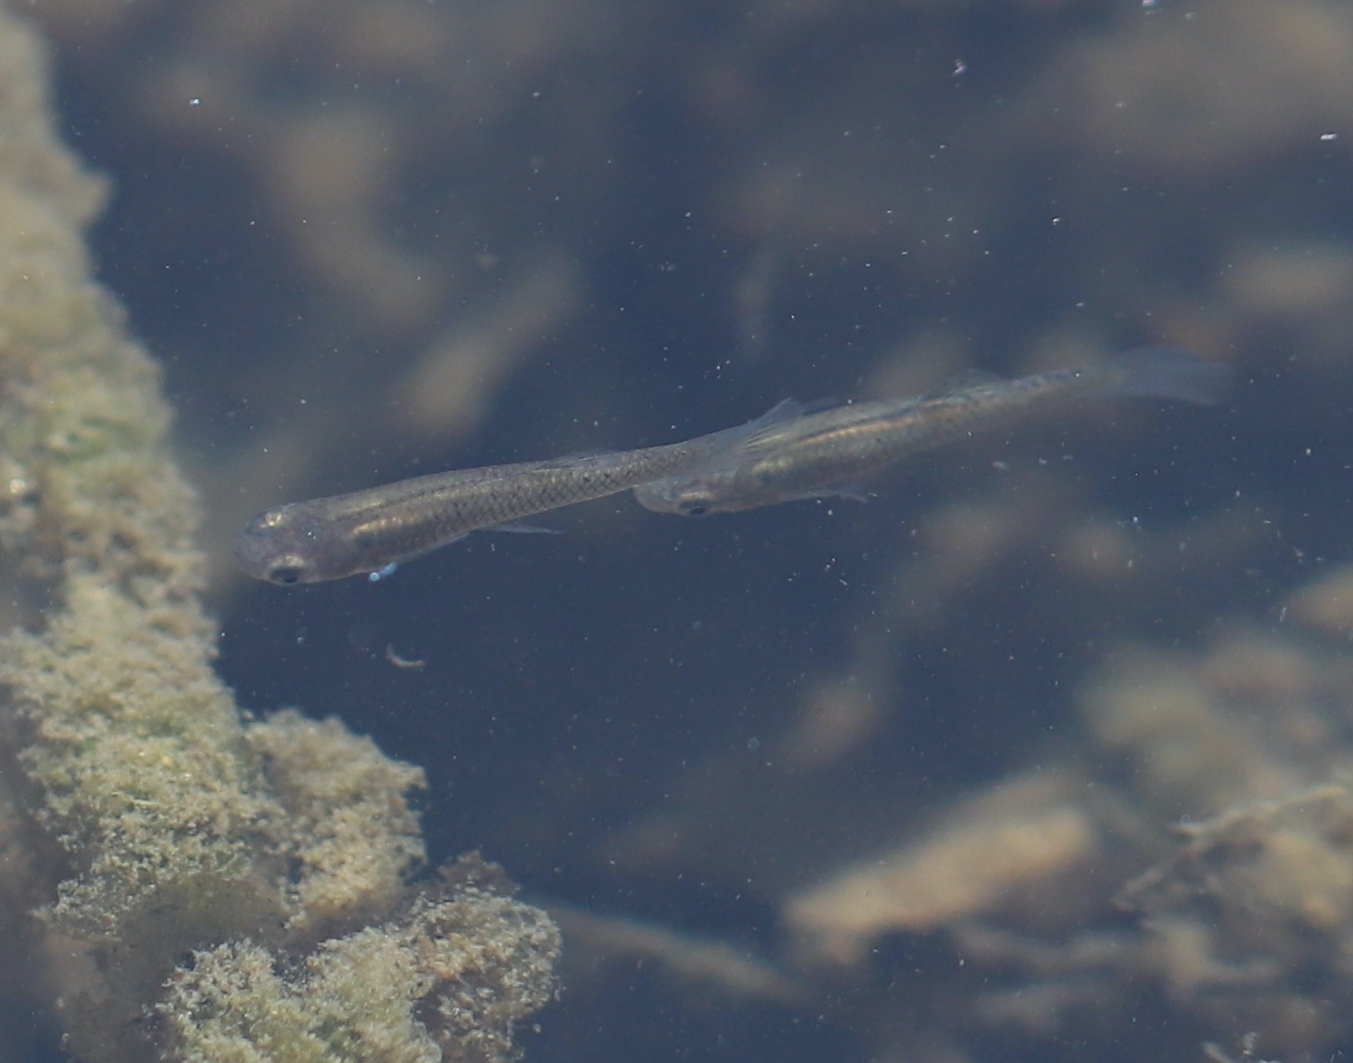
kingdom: Animalia
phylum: Chordata
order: Cyprinodontiformes
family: Poeciliidae
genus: Gambusia
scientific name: Gambusia affinis
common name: Mosquitofish
